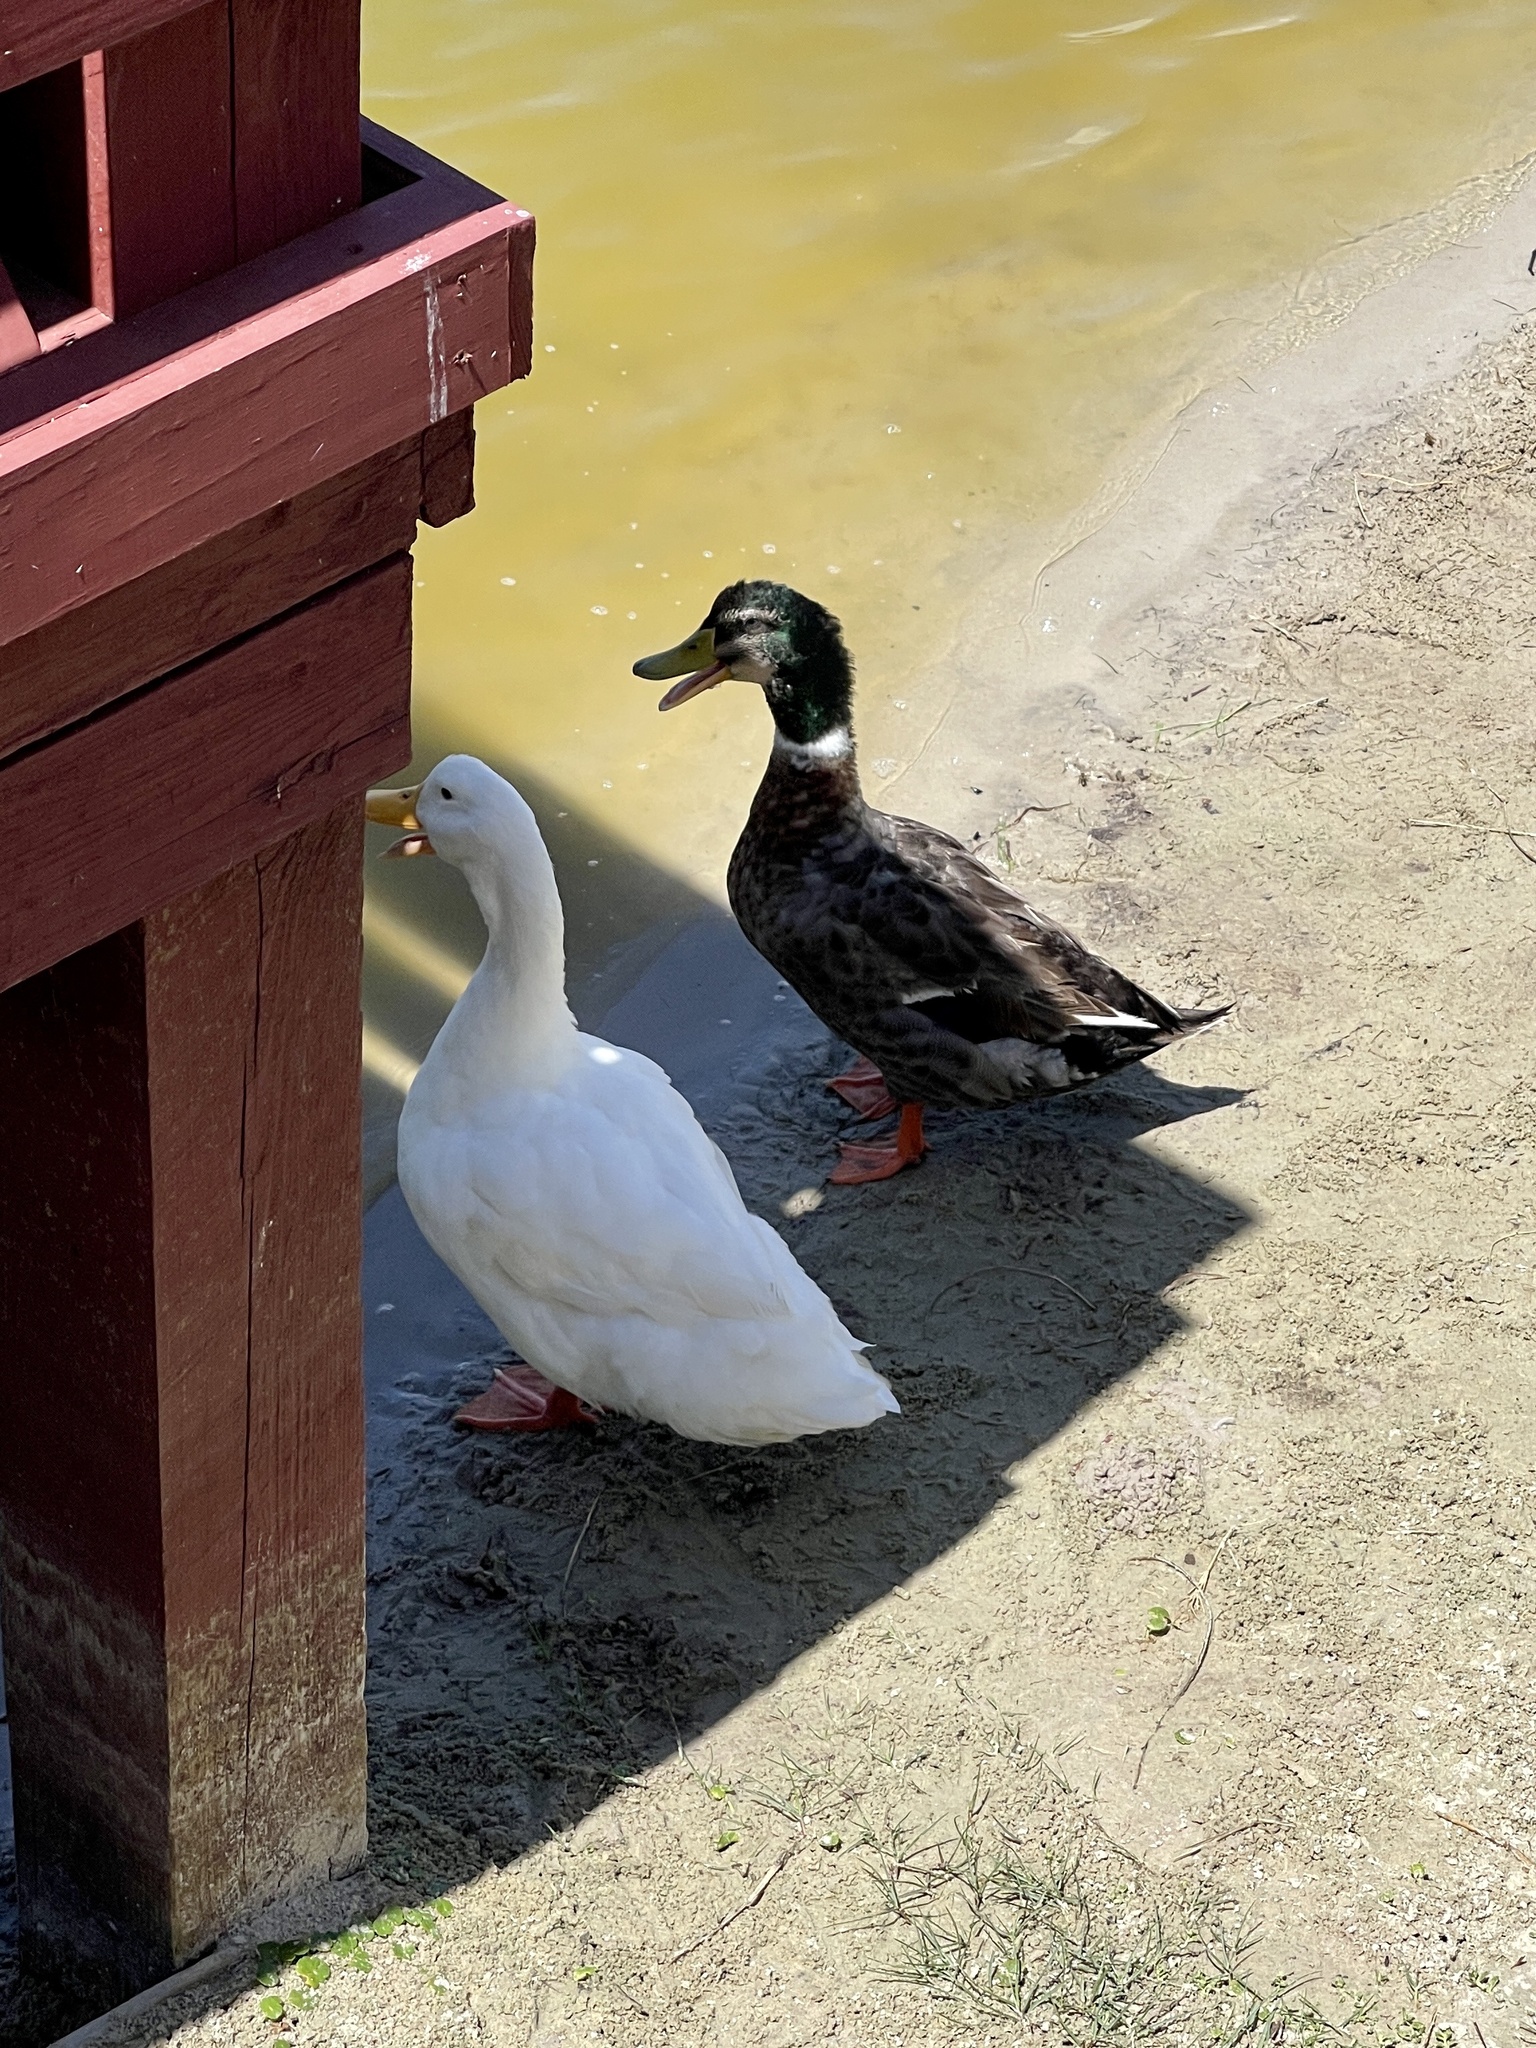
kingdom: Animalia
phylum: Chordata
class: Aves
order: Anseriformes
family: Anatidae
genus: Anas
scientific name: Anas platyrhynchos
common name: Mallard
